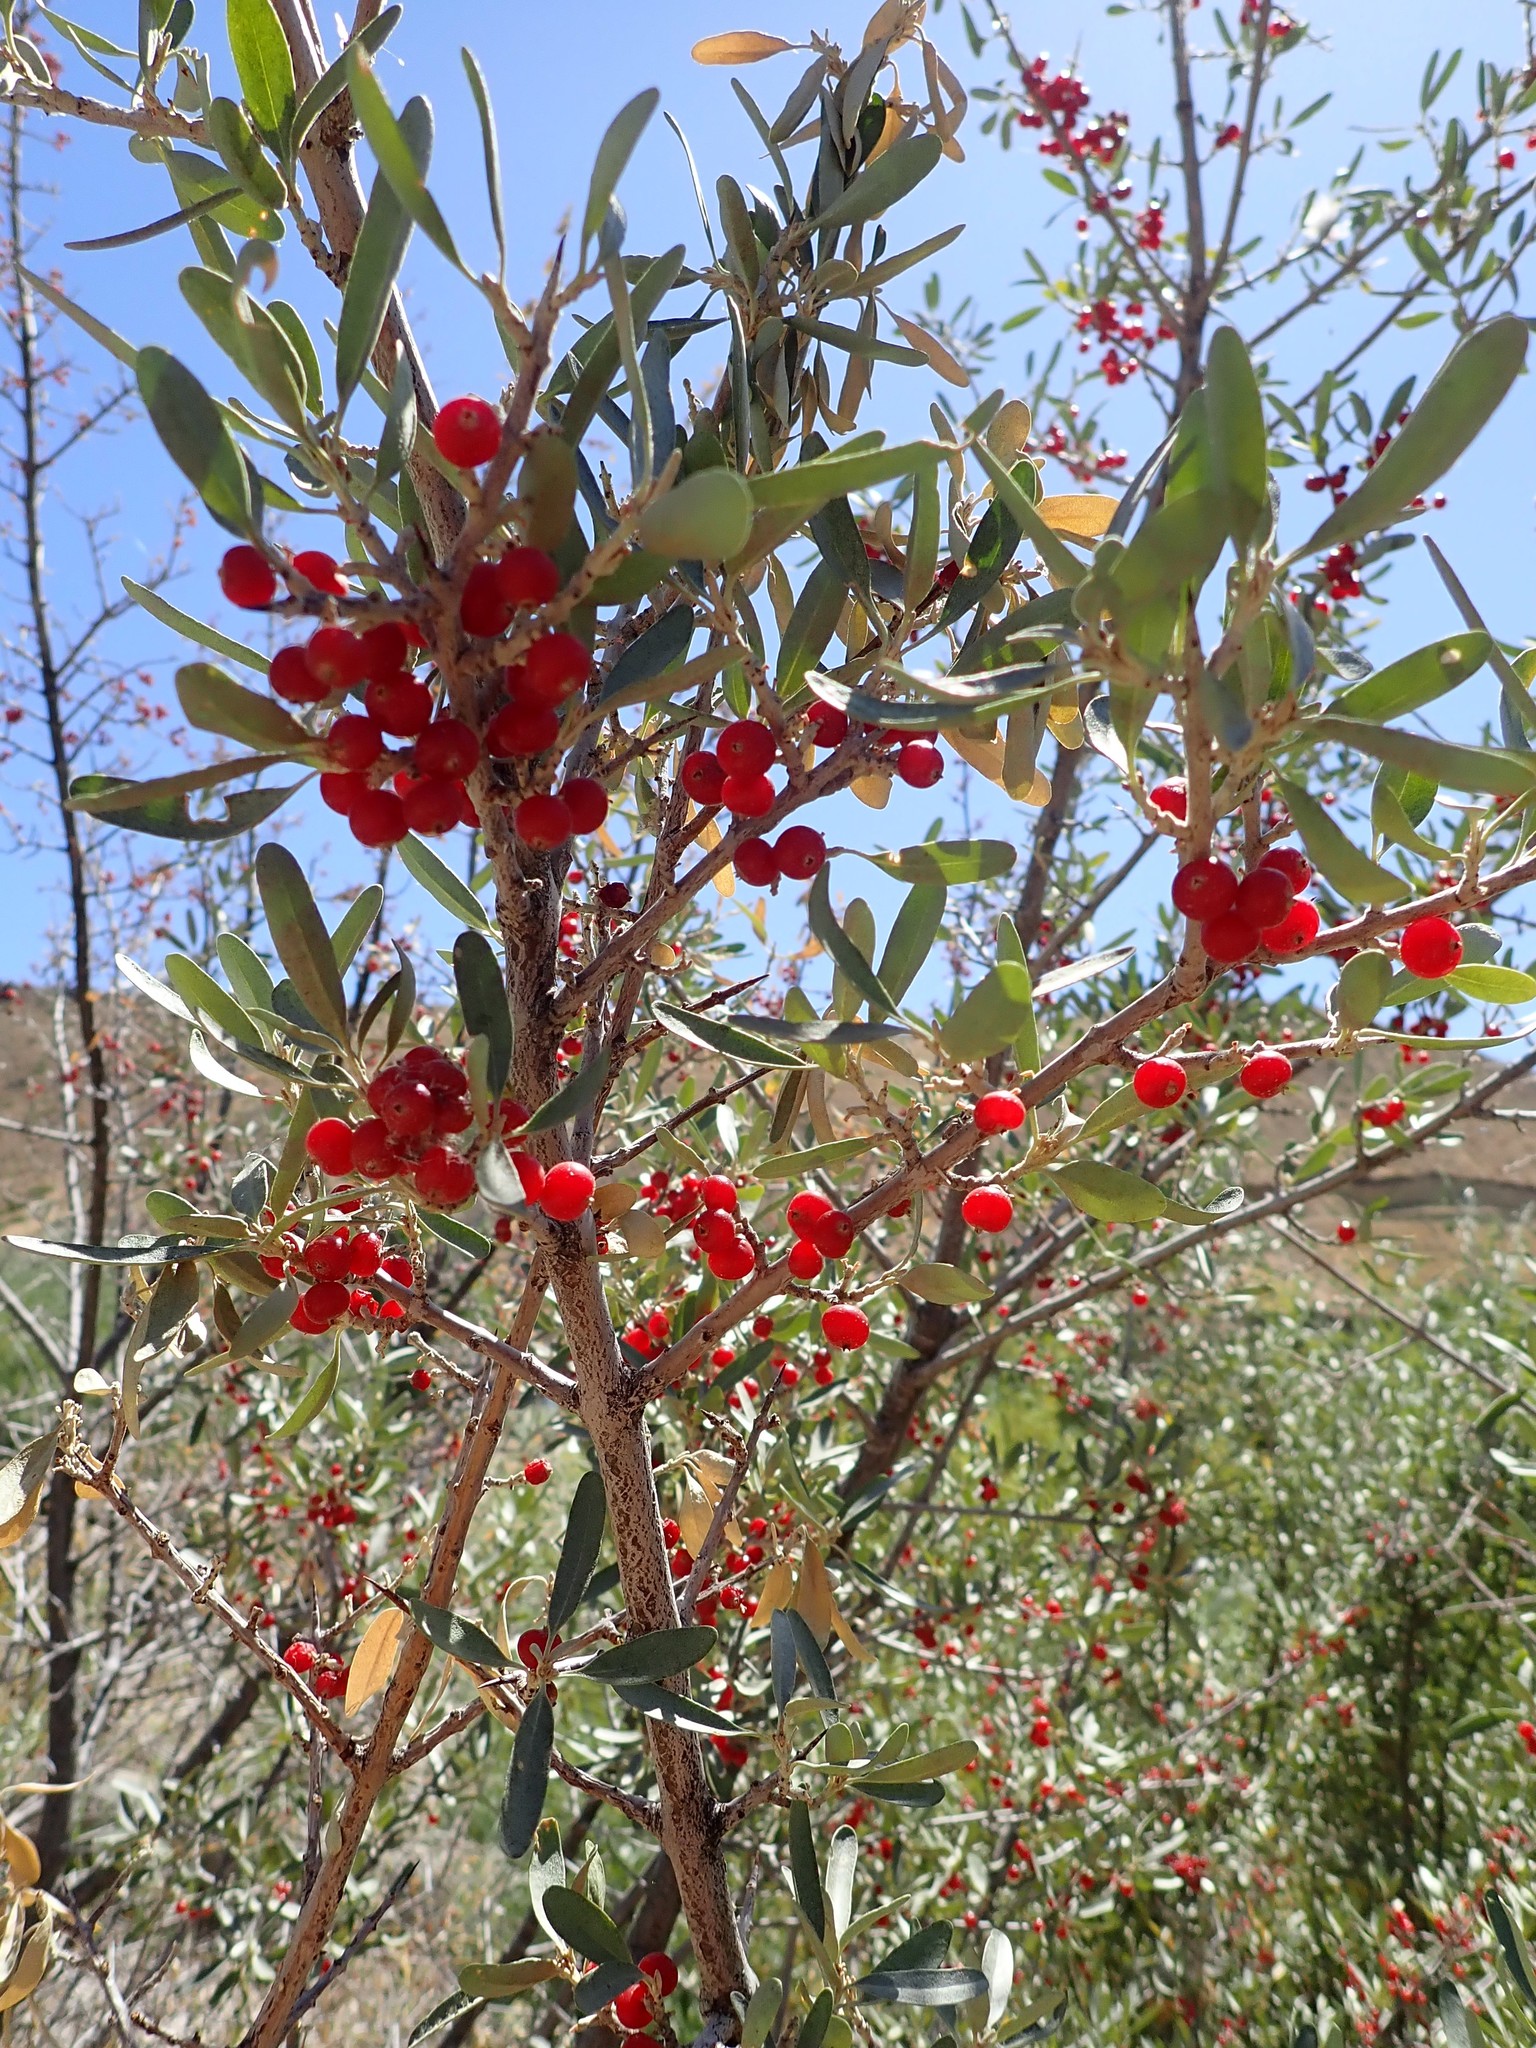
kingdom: Plantae
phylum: Tracheophyta
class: Magnoliopsida
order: Rosales
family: Elaeagnaceae
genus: Shepherdia
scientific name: Shepherdia argentea
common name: Silver buffaloberry
